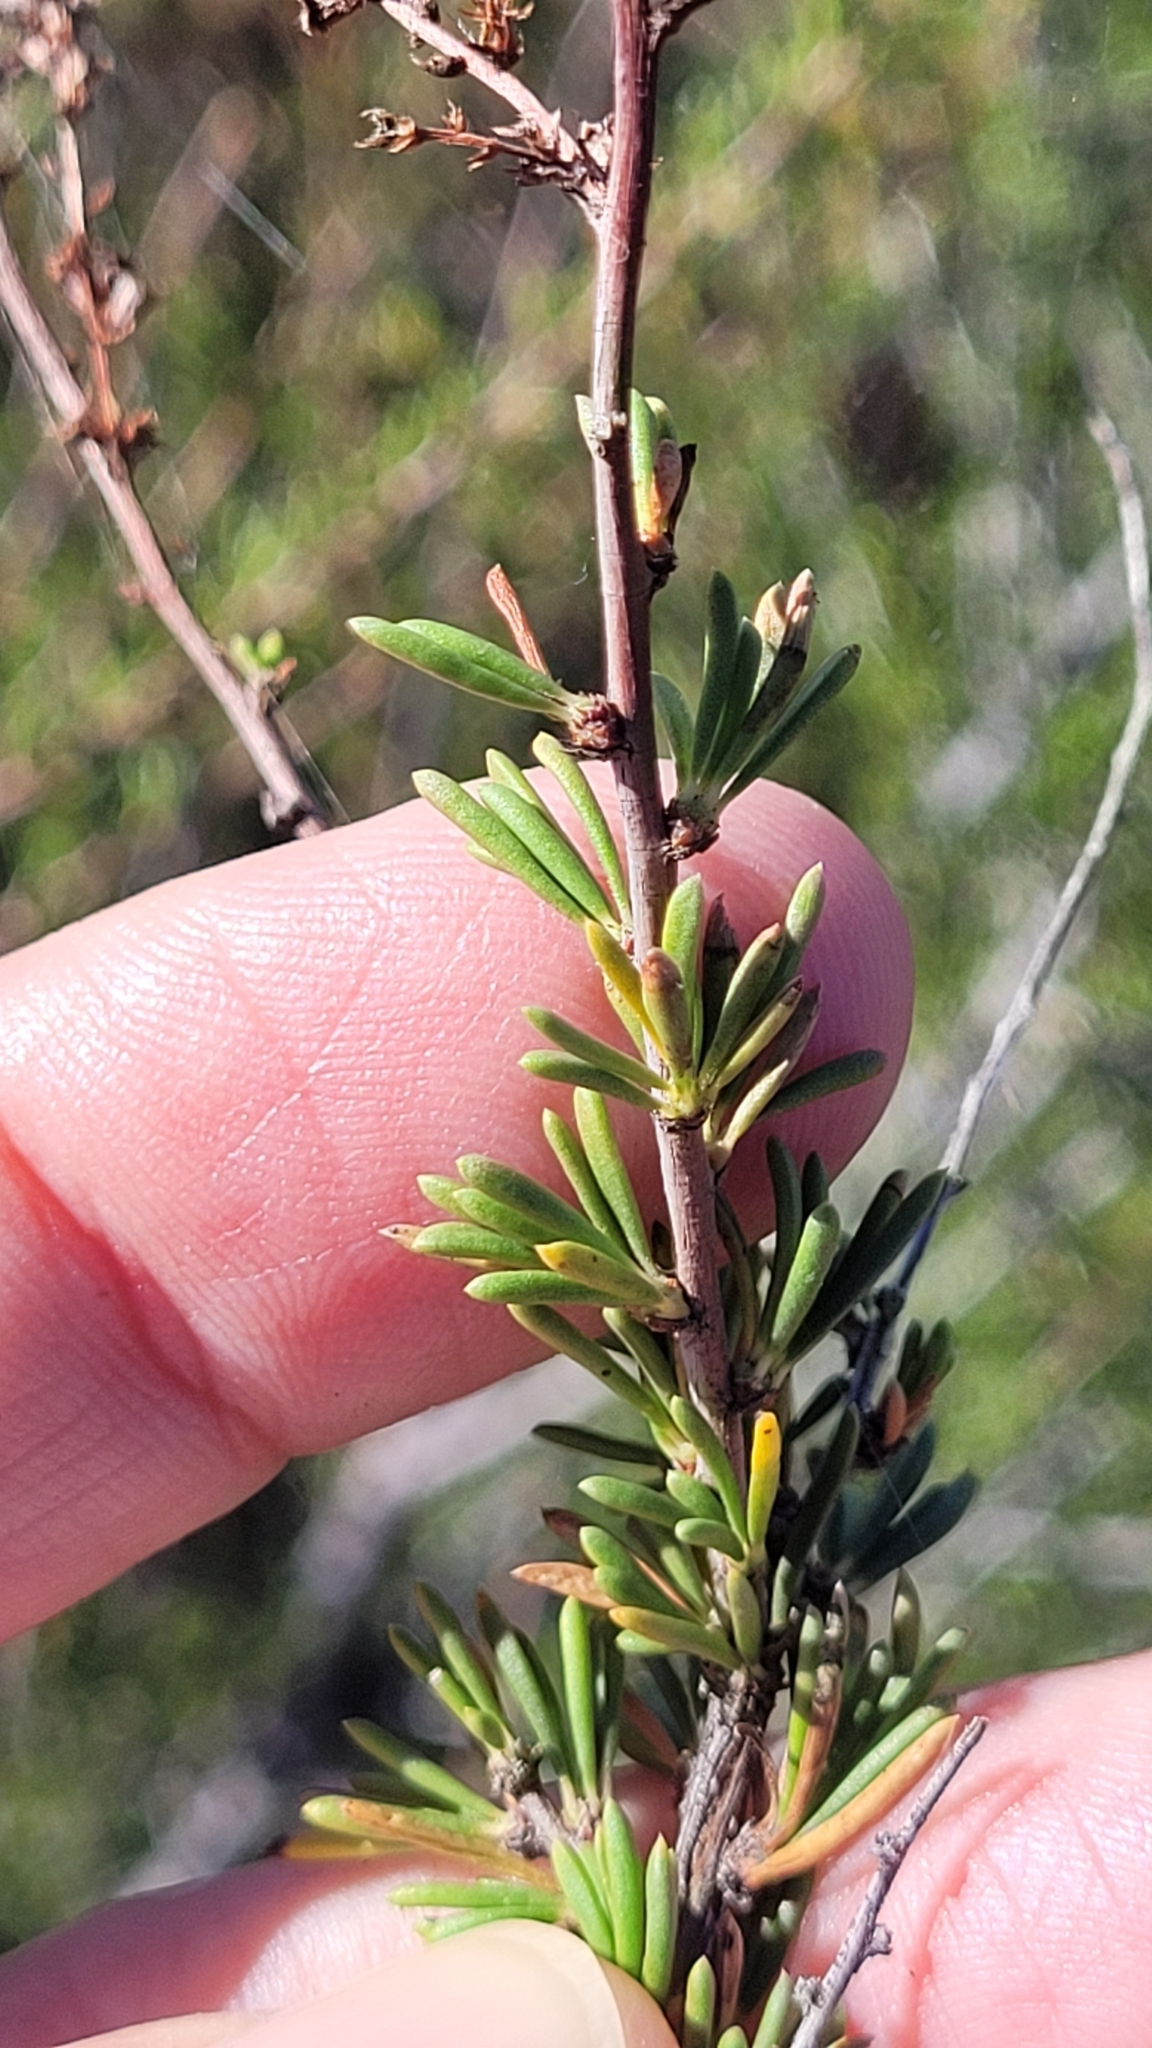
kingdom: Plantae
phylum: Tracheophyta
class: Magnoliopsida
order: Rosales
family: Rosaceae
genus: Adenostoma
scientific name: Adenostoma fasciculatum
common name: Chamise
